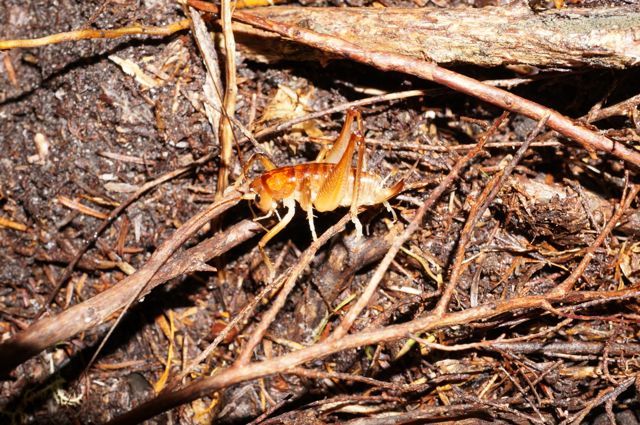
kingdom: Animalia
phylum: Arthropoda
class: Insecta
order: Orthoptera
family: Anostostomatidae
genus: Hemiandrus
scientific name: Hemiandrus electra
